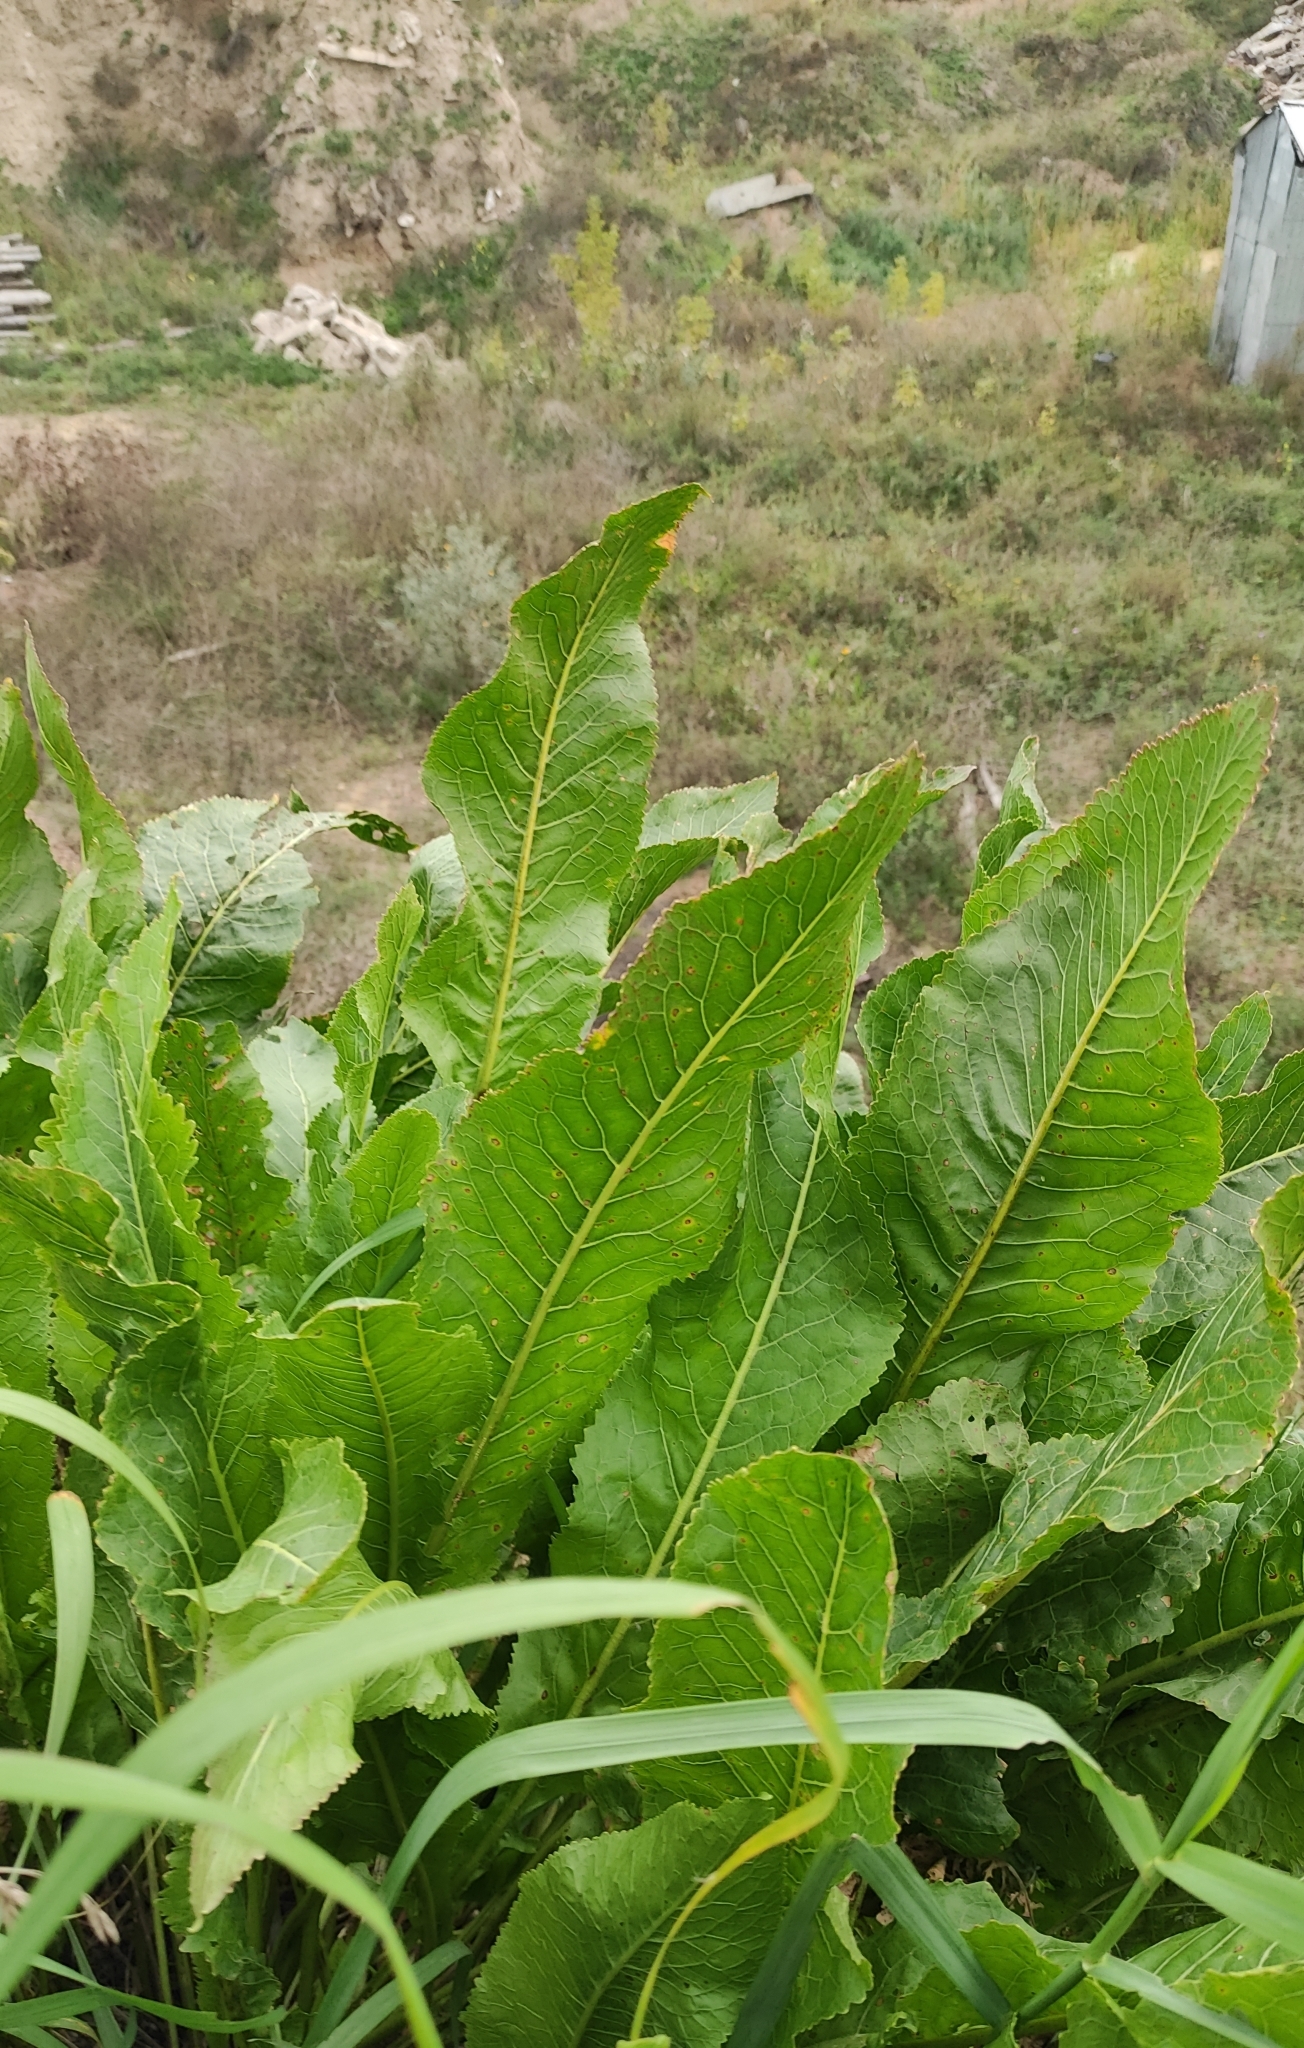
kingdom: Plantae
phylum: Tracheophyta
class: Magnoliopsida
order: Brassicales
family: Brassicaceae
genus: Armoracia
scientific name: Armoracia rusticana
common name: Horseradish
